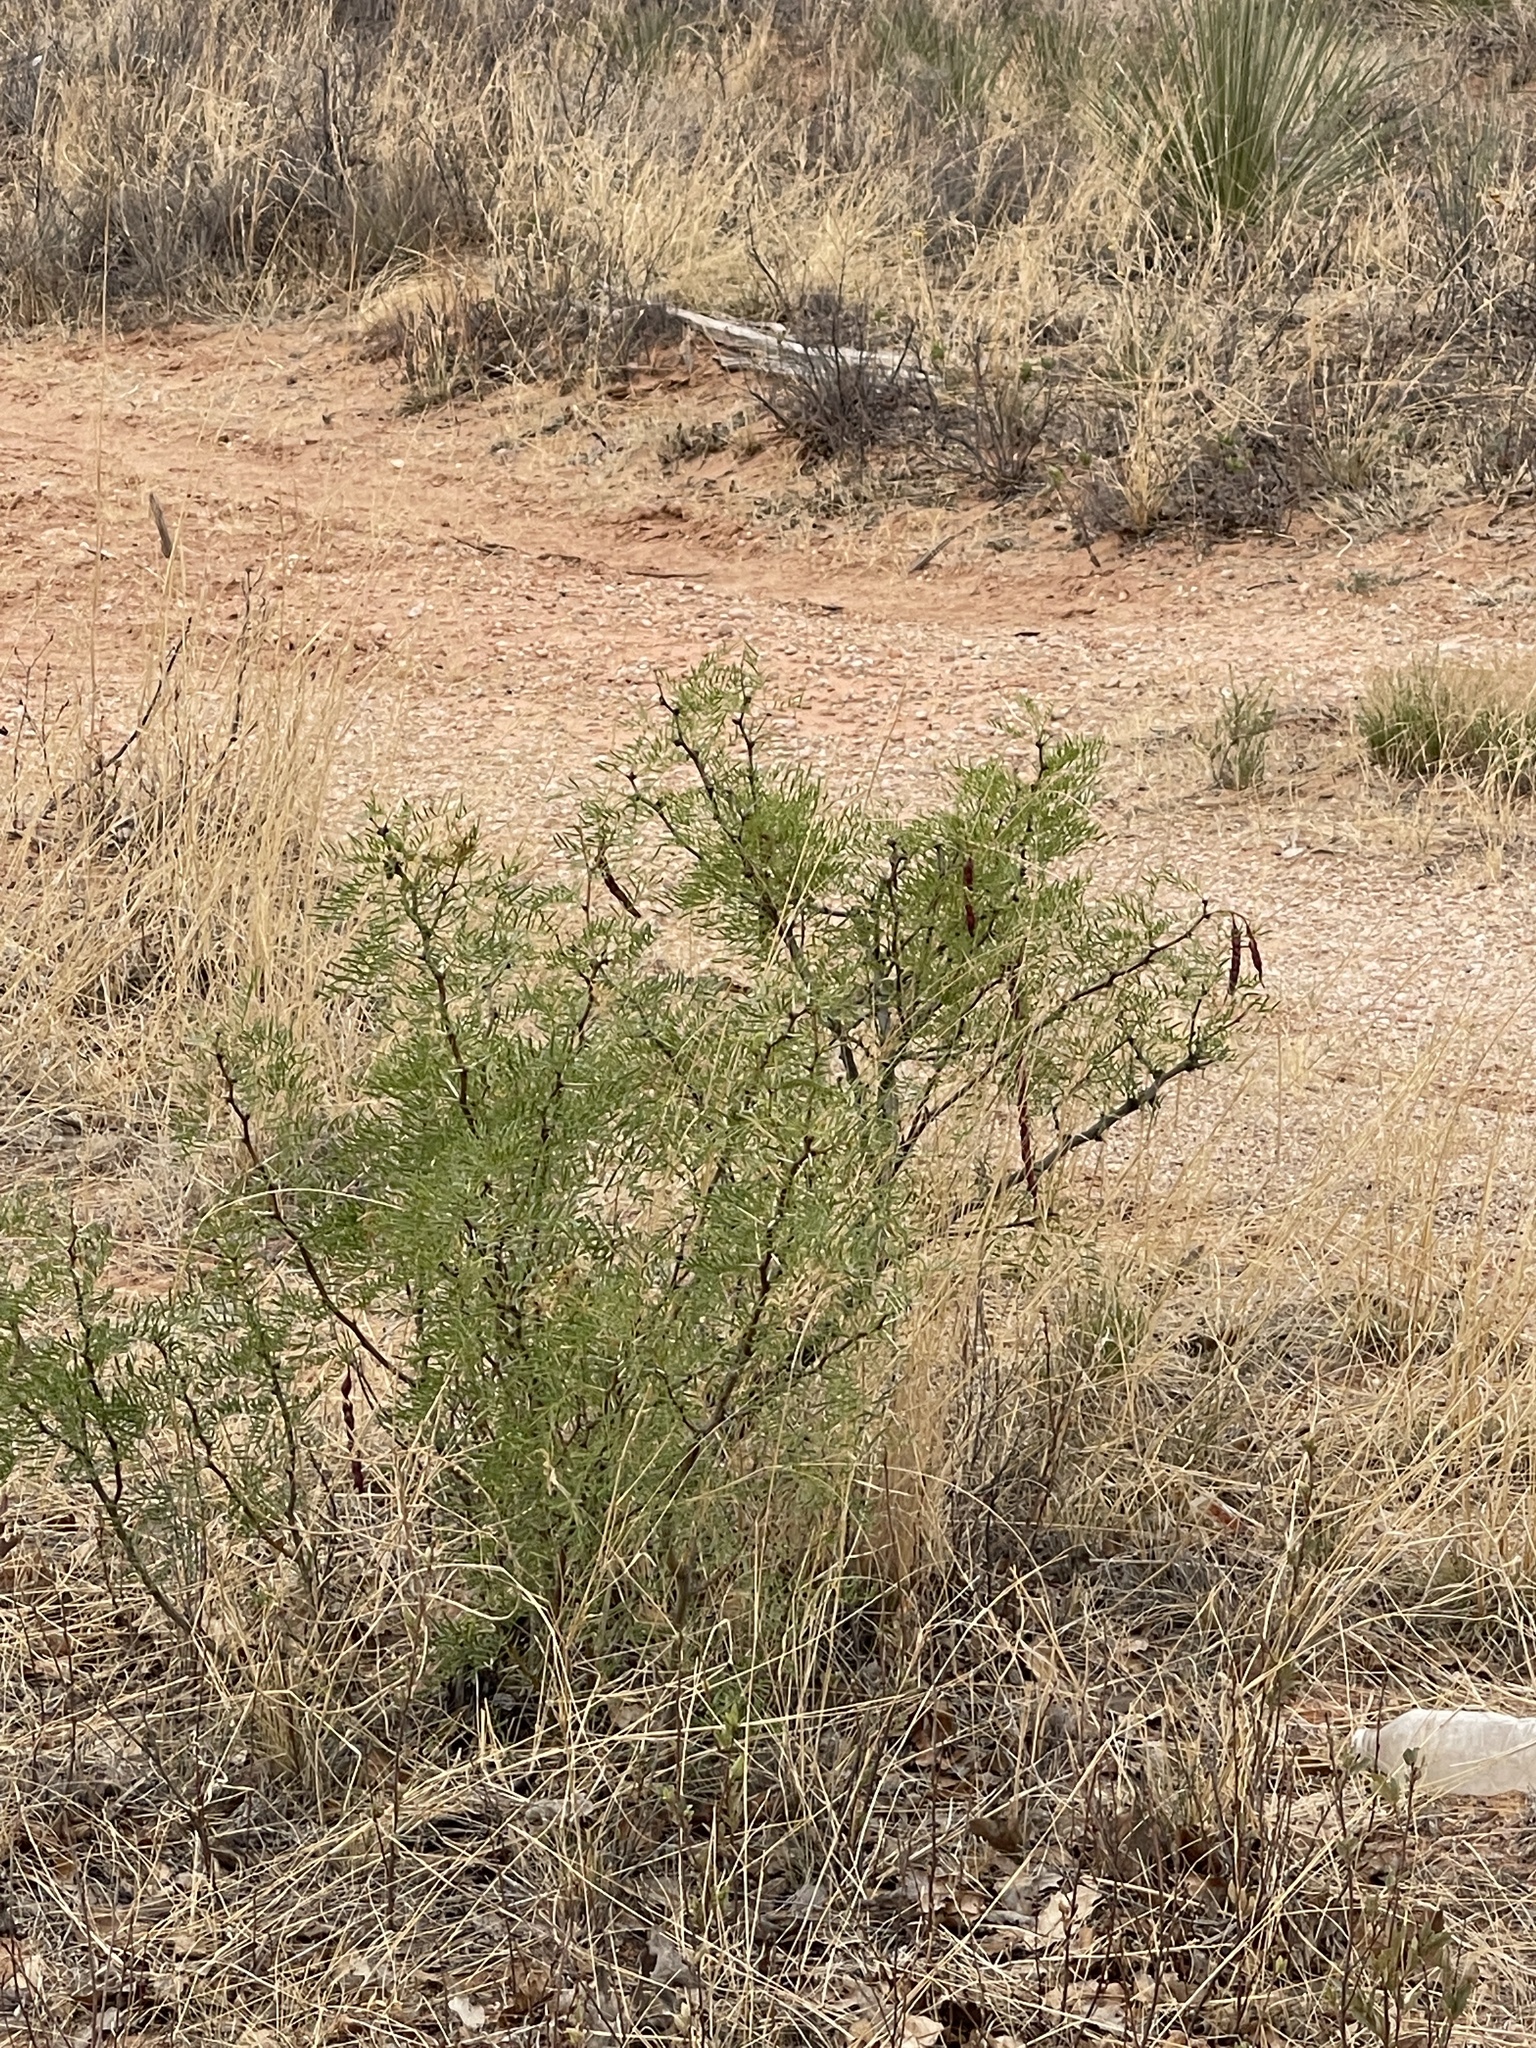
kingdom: Plantae
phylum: Tracheophyta
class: Magnoliopsida
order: Fabales
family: Fabaceae
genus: Prosopis
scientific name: Prosopis glandulosa
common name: Honey mesquite
